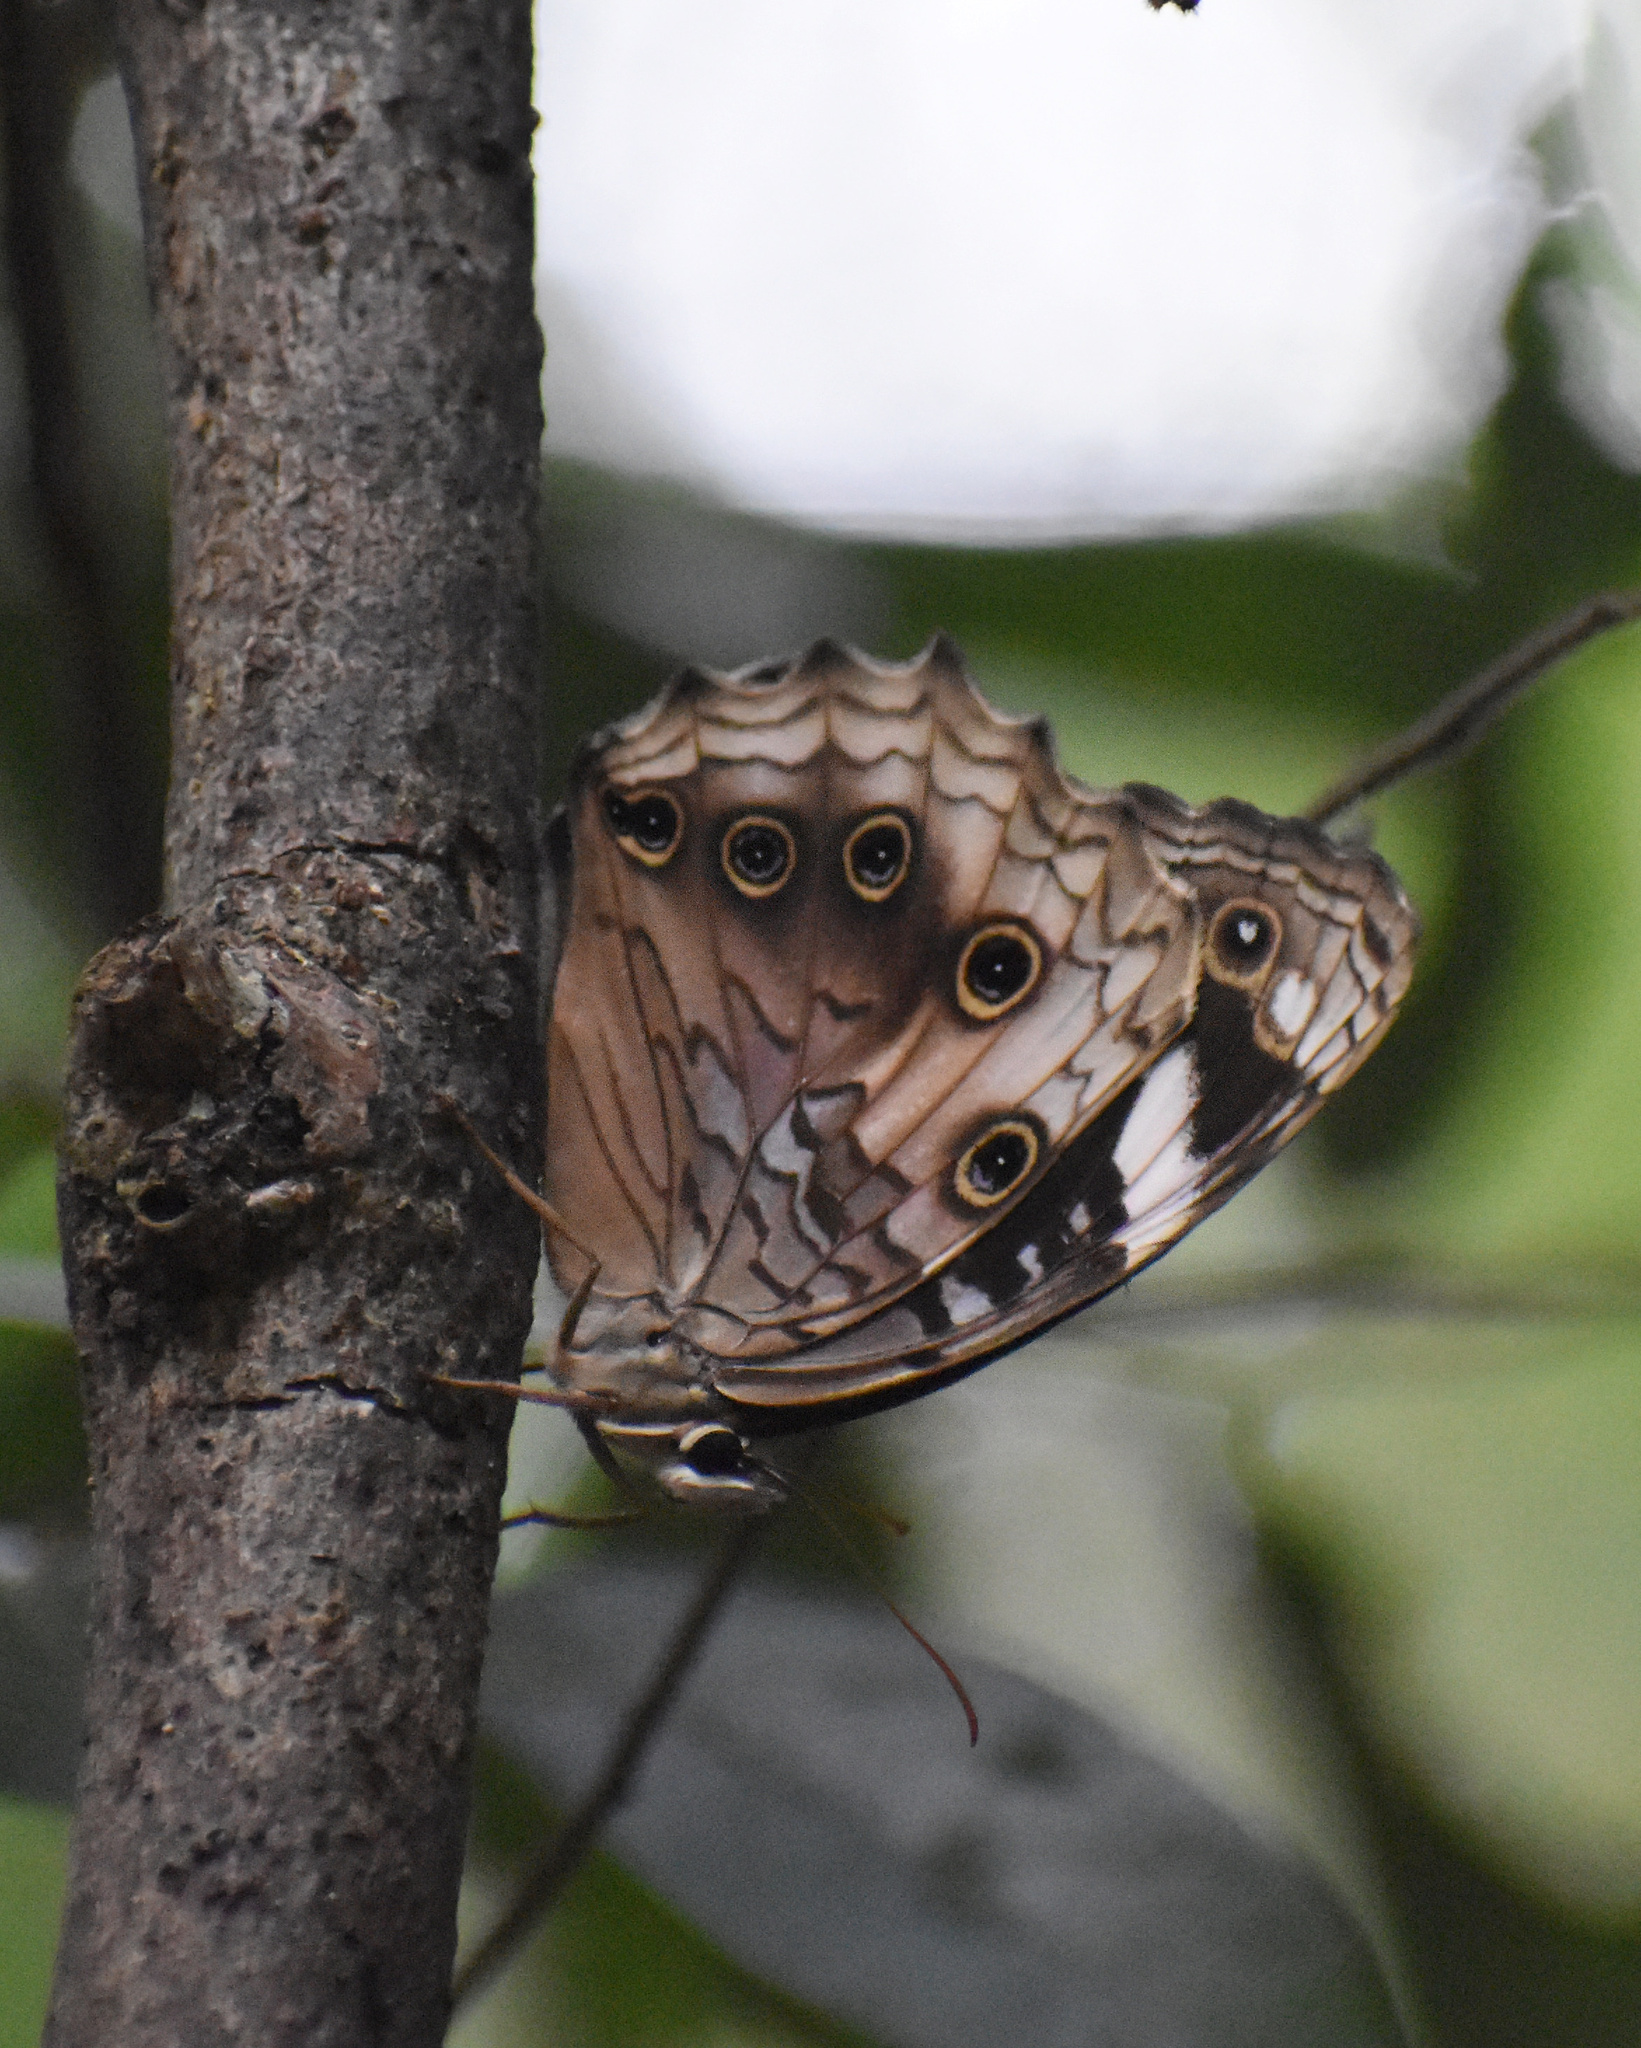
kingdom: Animalia
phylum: Arthropoda
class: Insecta
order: Lepidoptera
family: Nymphalidae
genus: Paralethe
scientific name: Paralethe dendrophilus
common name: Bush beauty
